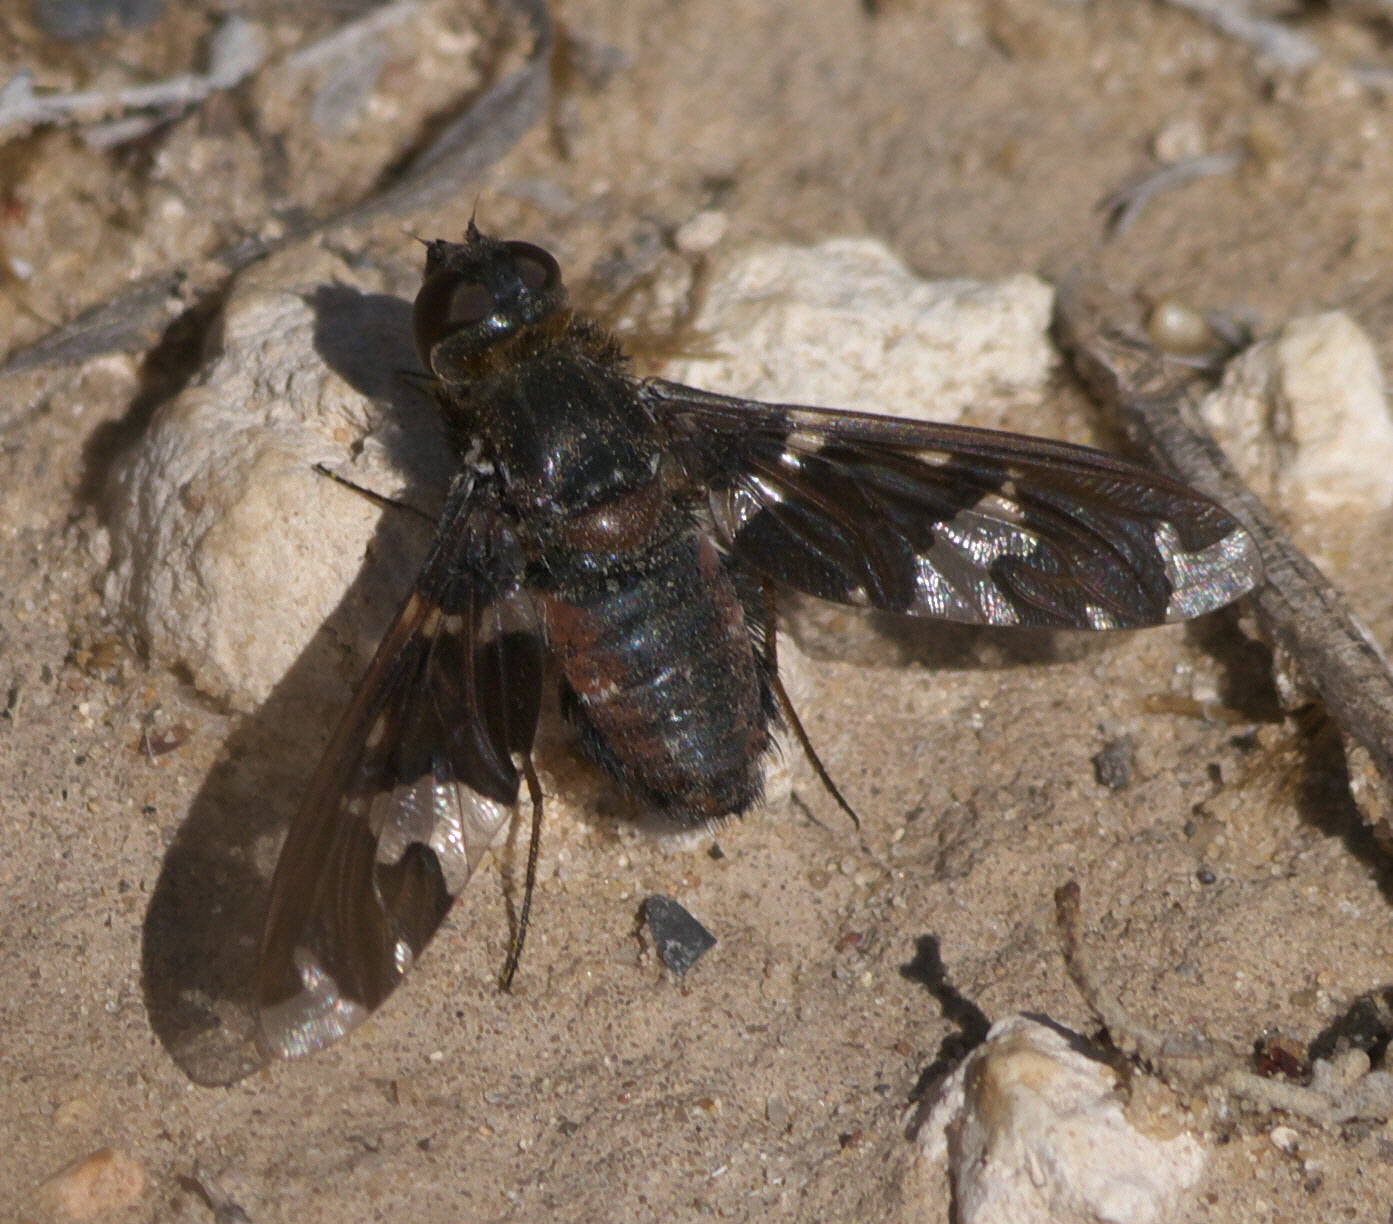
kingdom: Animalia
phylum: Arthropoda
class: Insecta
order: Diptera
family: Bombyliidae
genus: Exoprosopa
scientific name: Exoprosopa dorcadion
